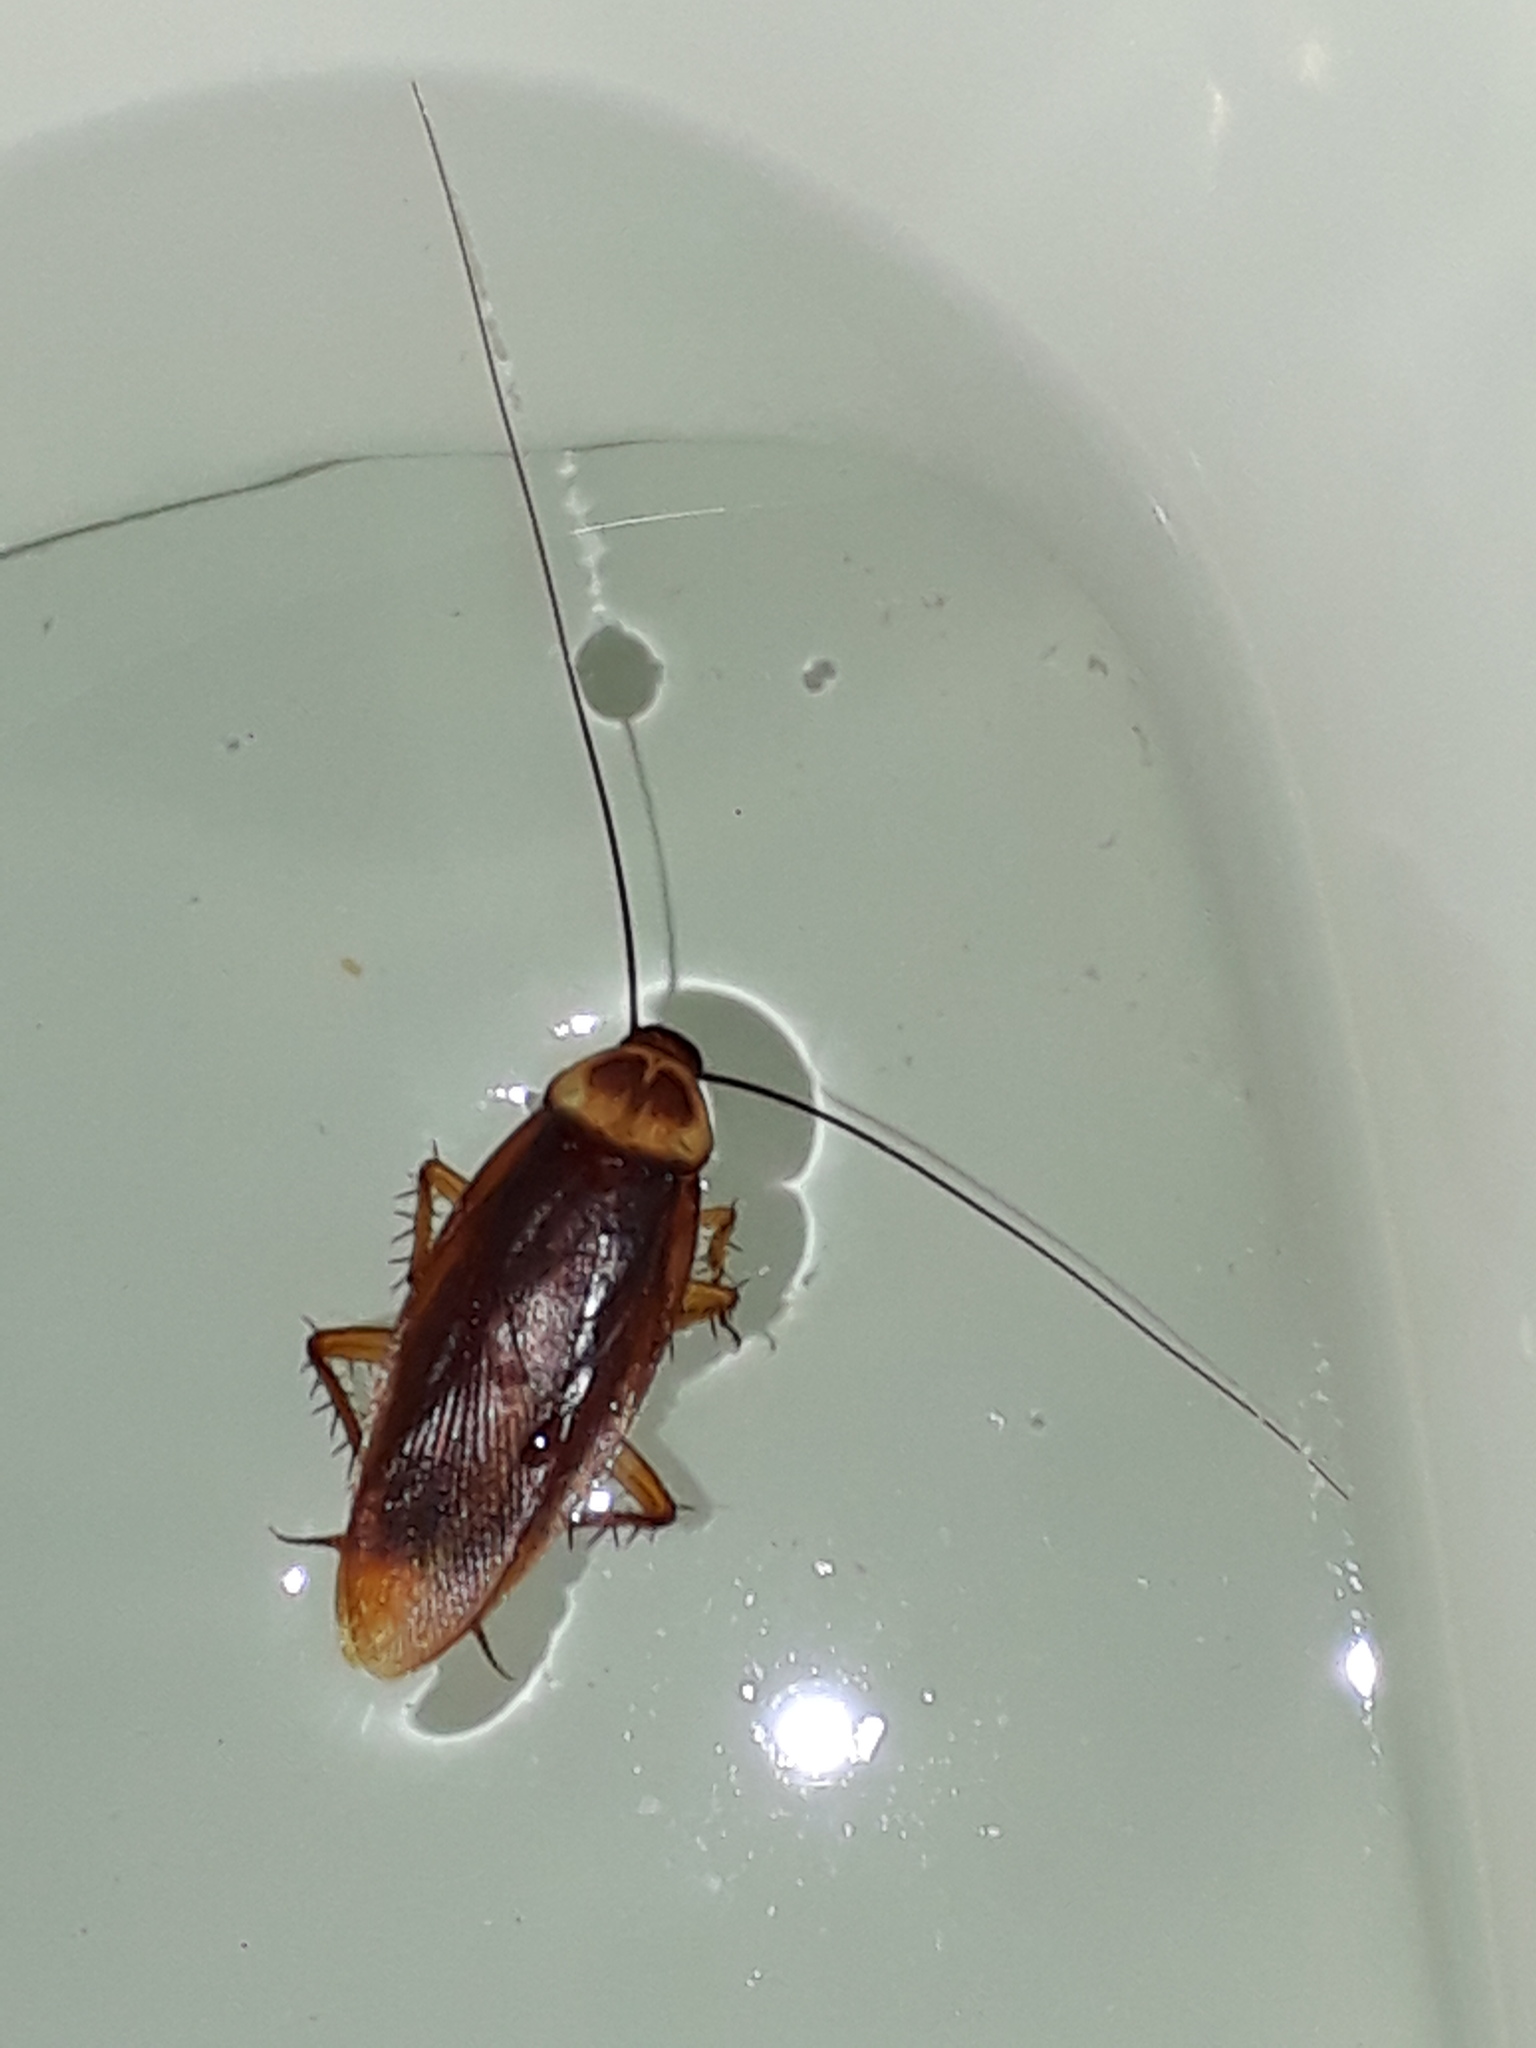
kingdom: Animalia
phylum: Arthropoda
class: Insecta
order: Blattodea
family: Blattidae
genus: Periplaneta
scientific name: Periplaneta americana
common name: American cockroach
